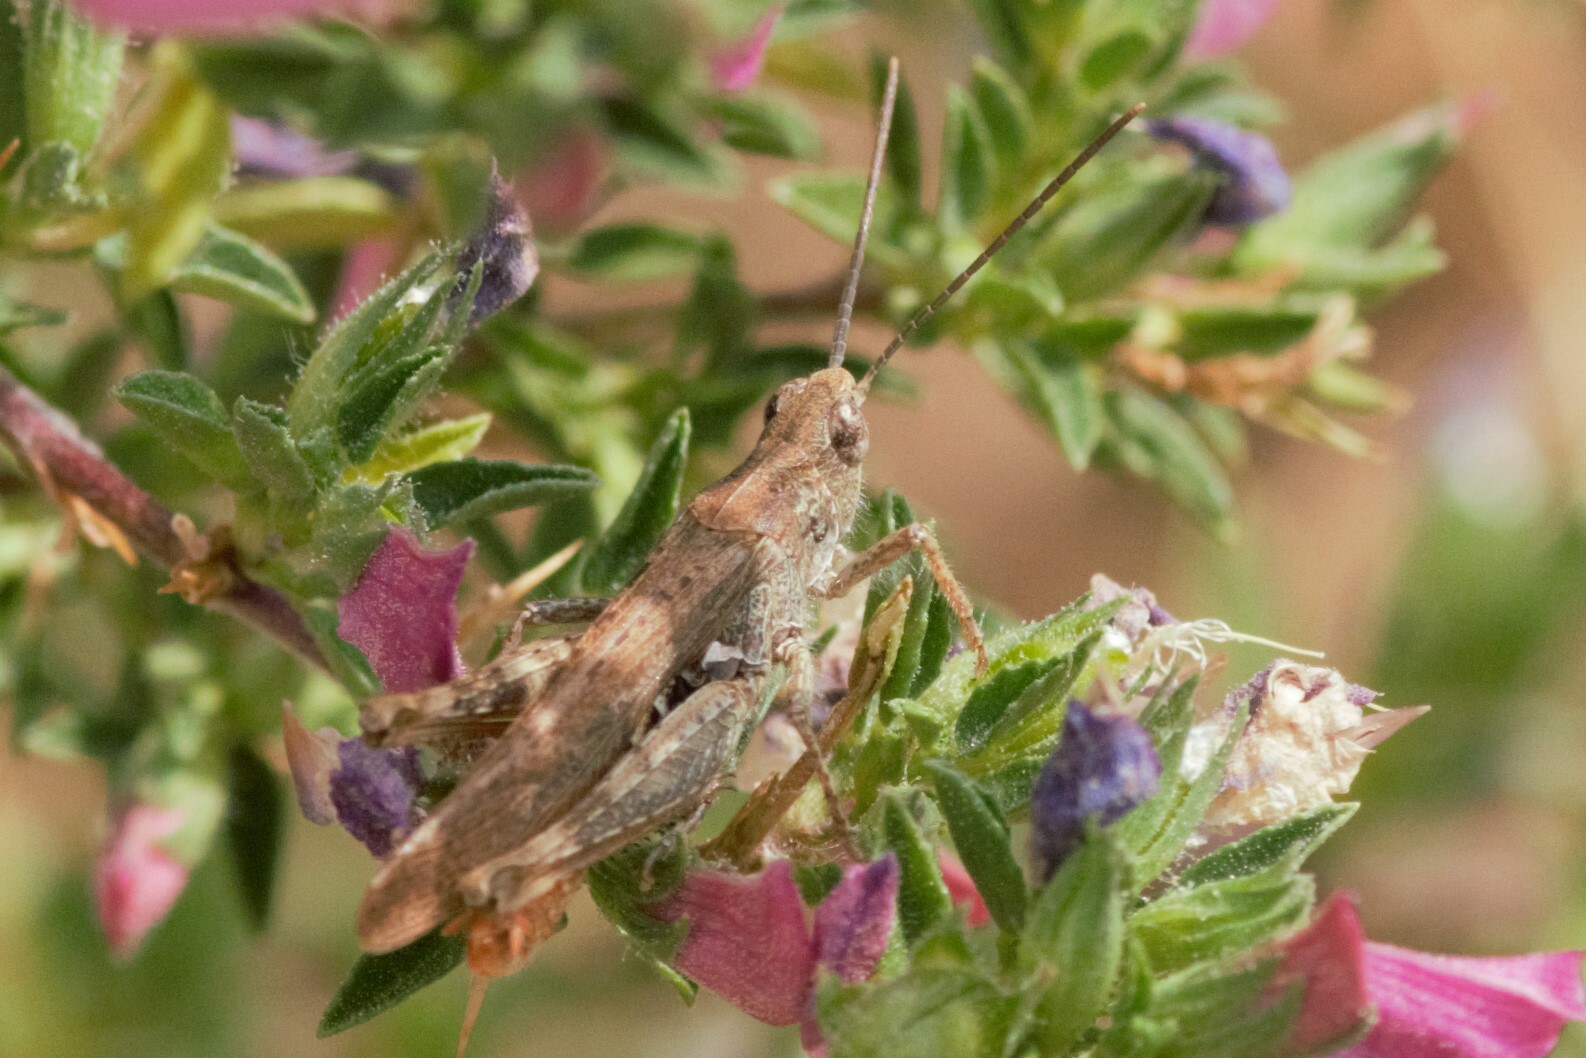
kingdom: Animalia
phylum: Arthropoda
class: Insecta
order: Orthoptera
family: Acrididae
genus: Chorthippus
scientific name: Chorthippus brunneus
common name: Field grasshopper
